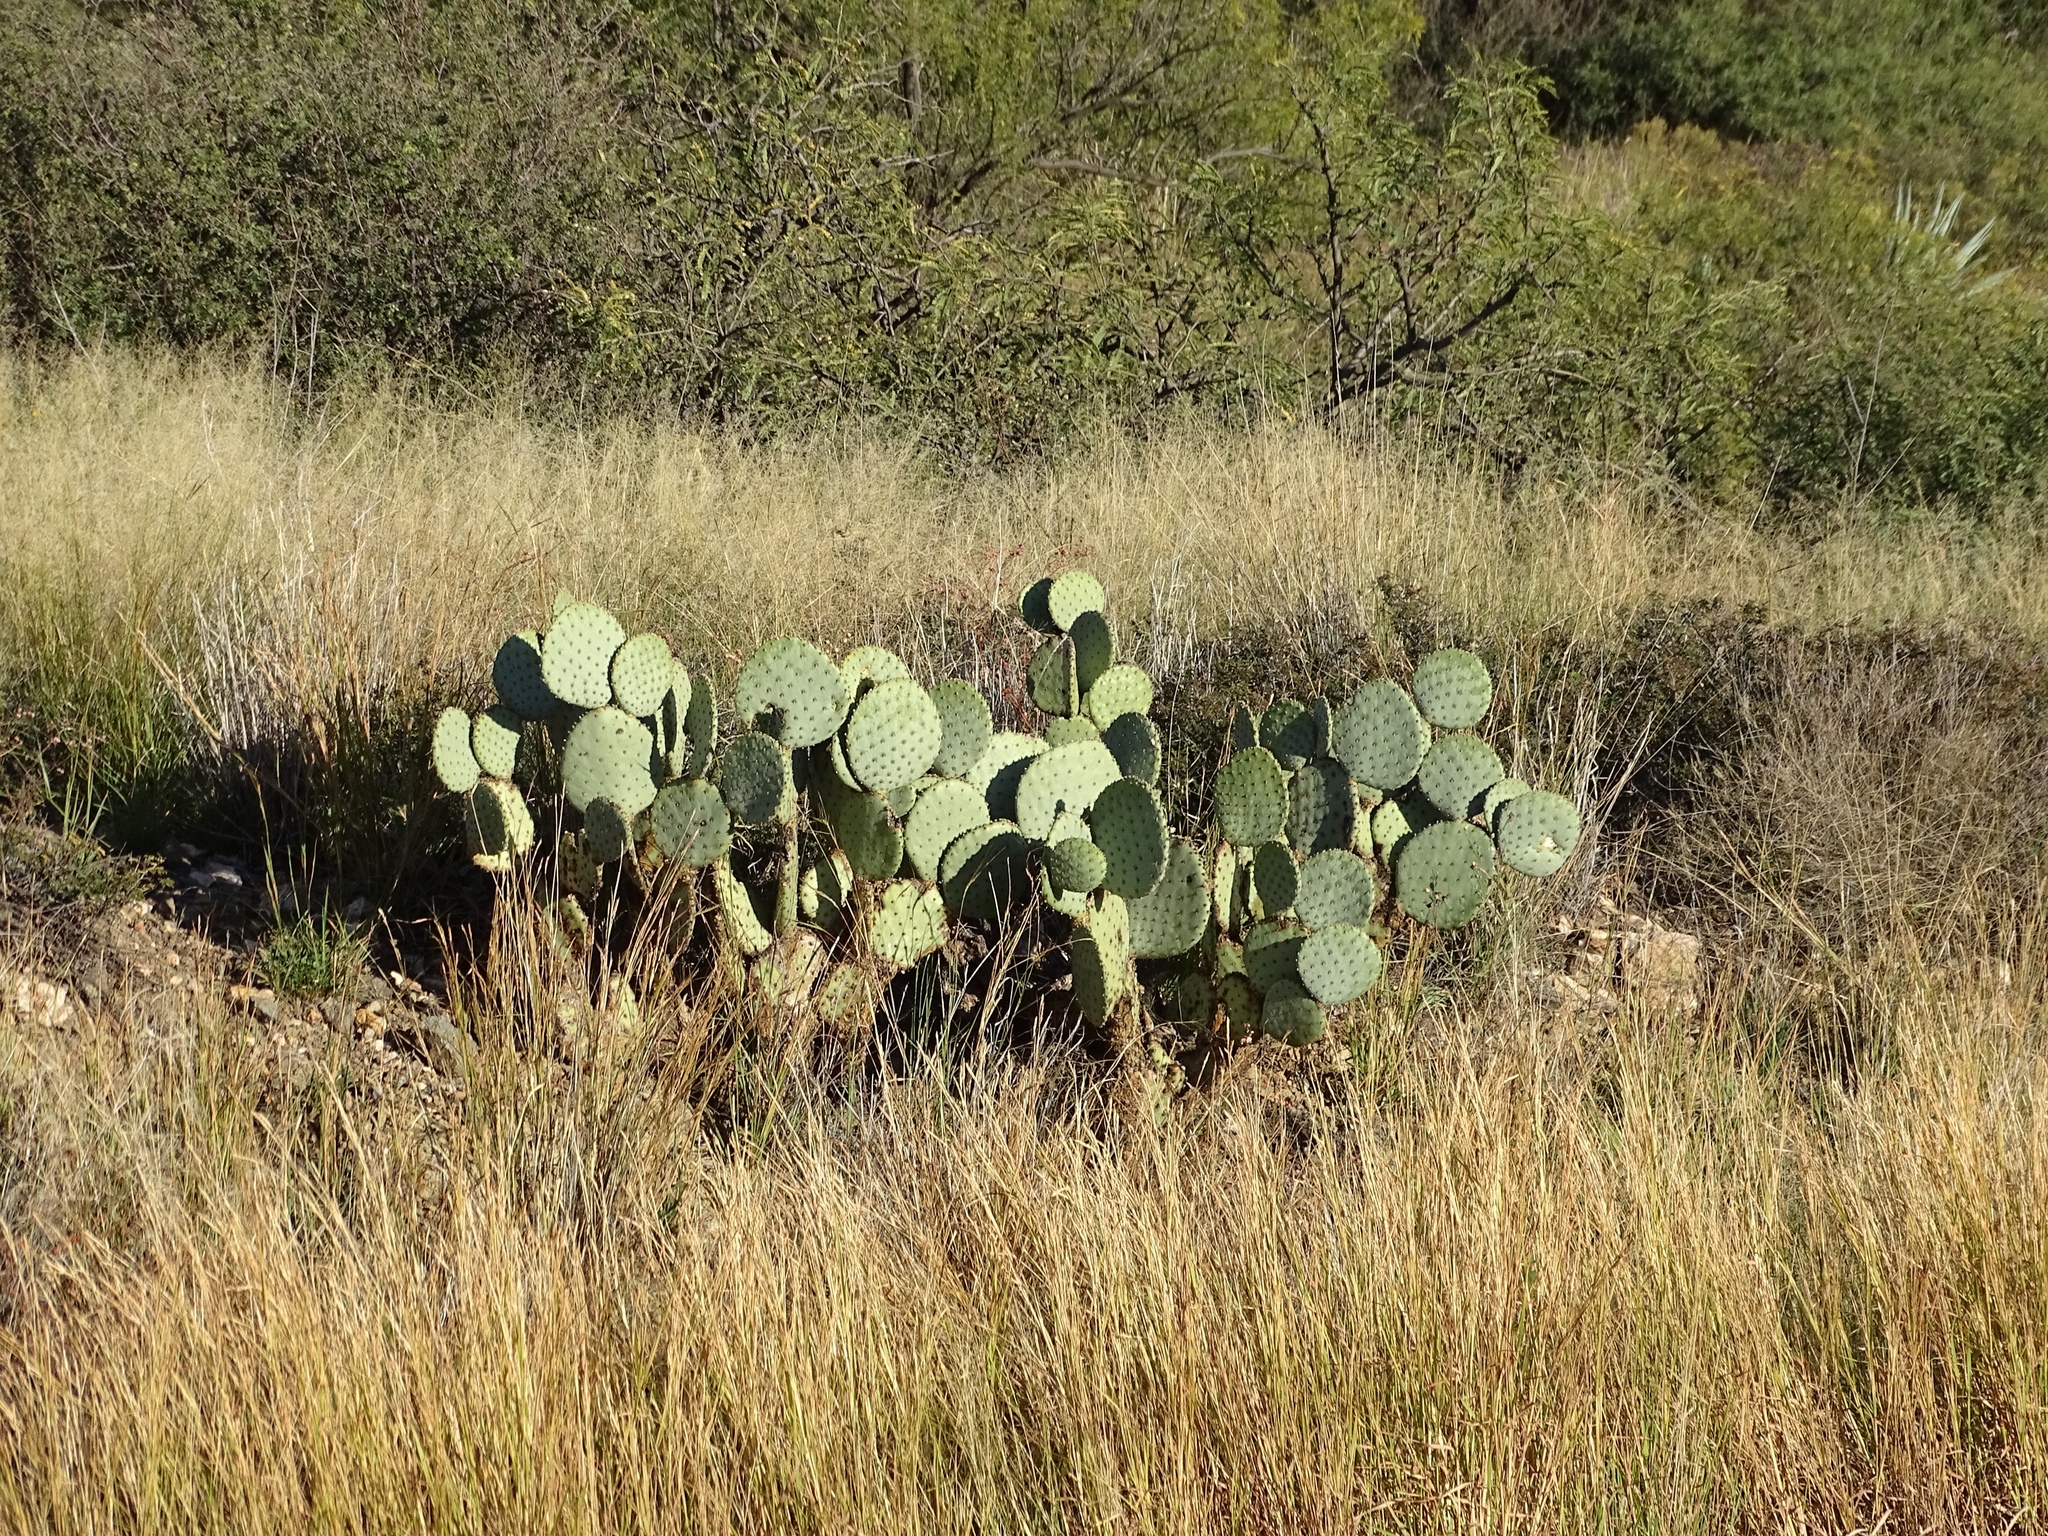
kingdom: Plantae
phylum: Tracheophyta
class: Magnoliopsida
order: Caryophyllales
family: Cactaceae
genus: Opuntia
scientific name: Opuntia chlorotica
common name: Dollar-joint prickly-pear
